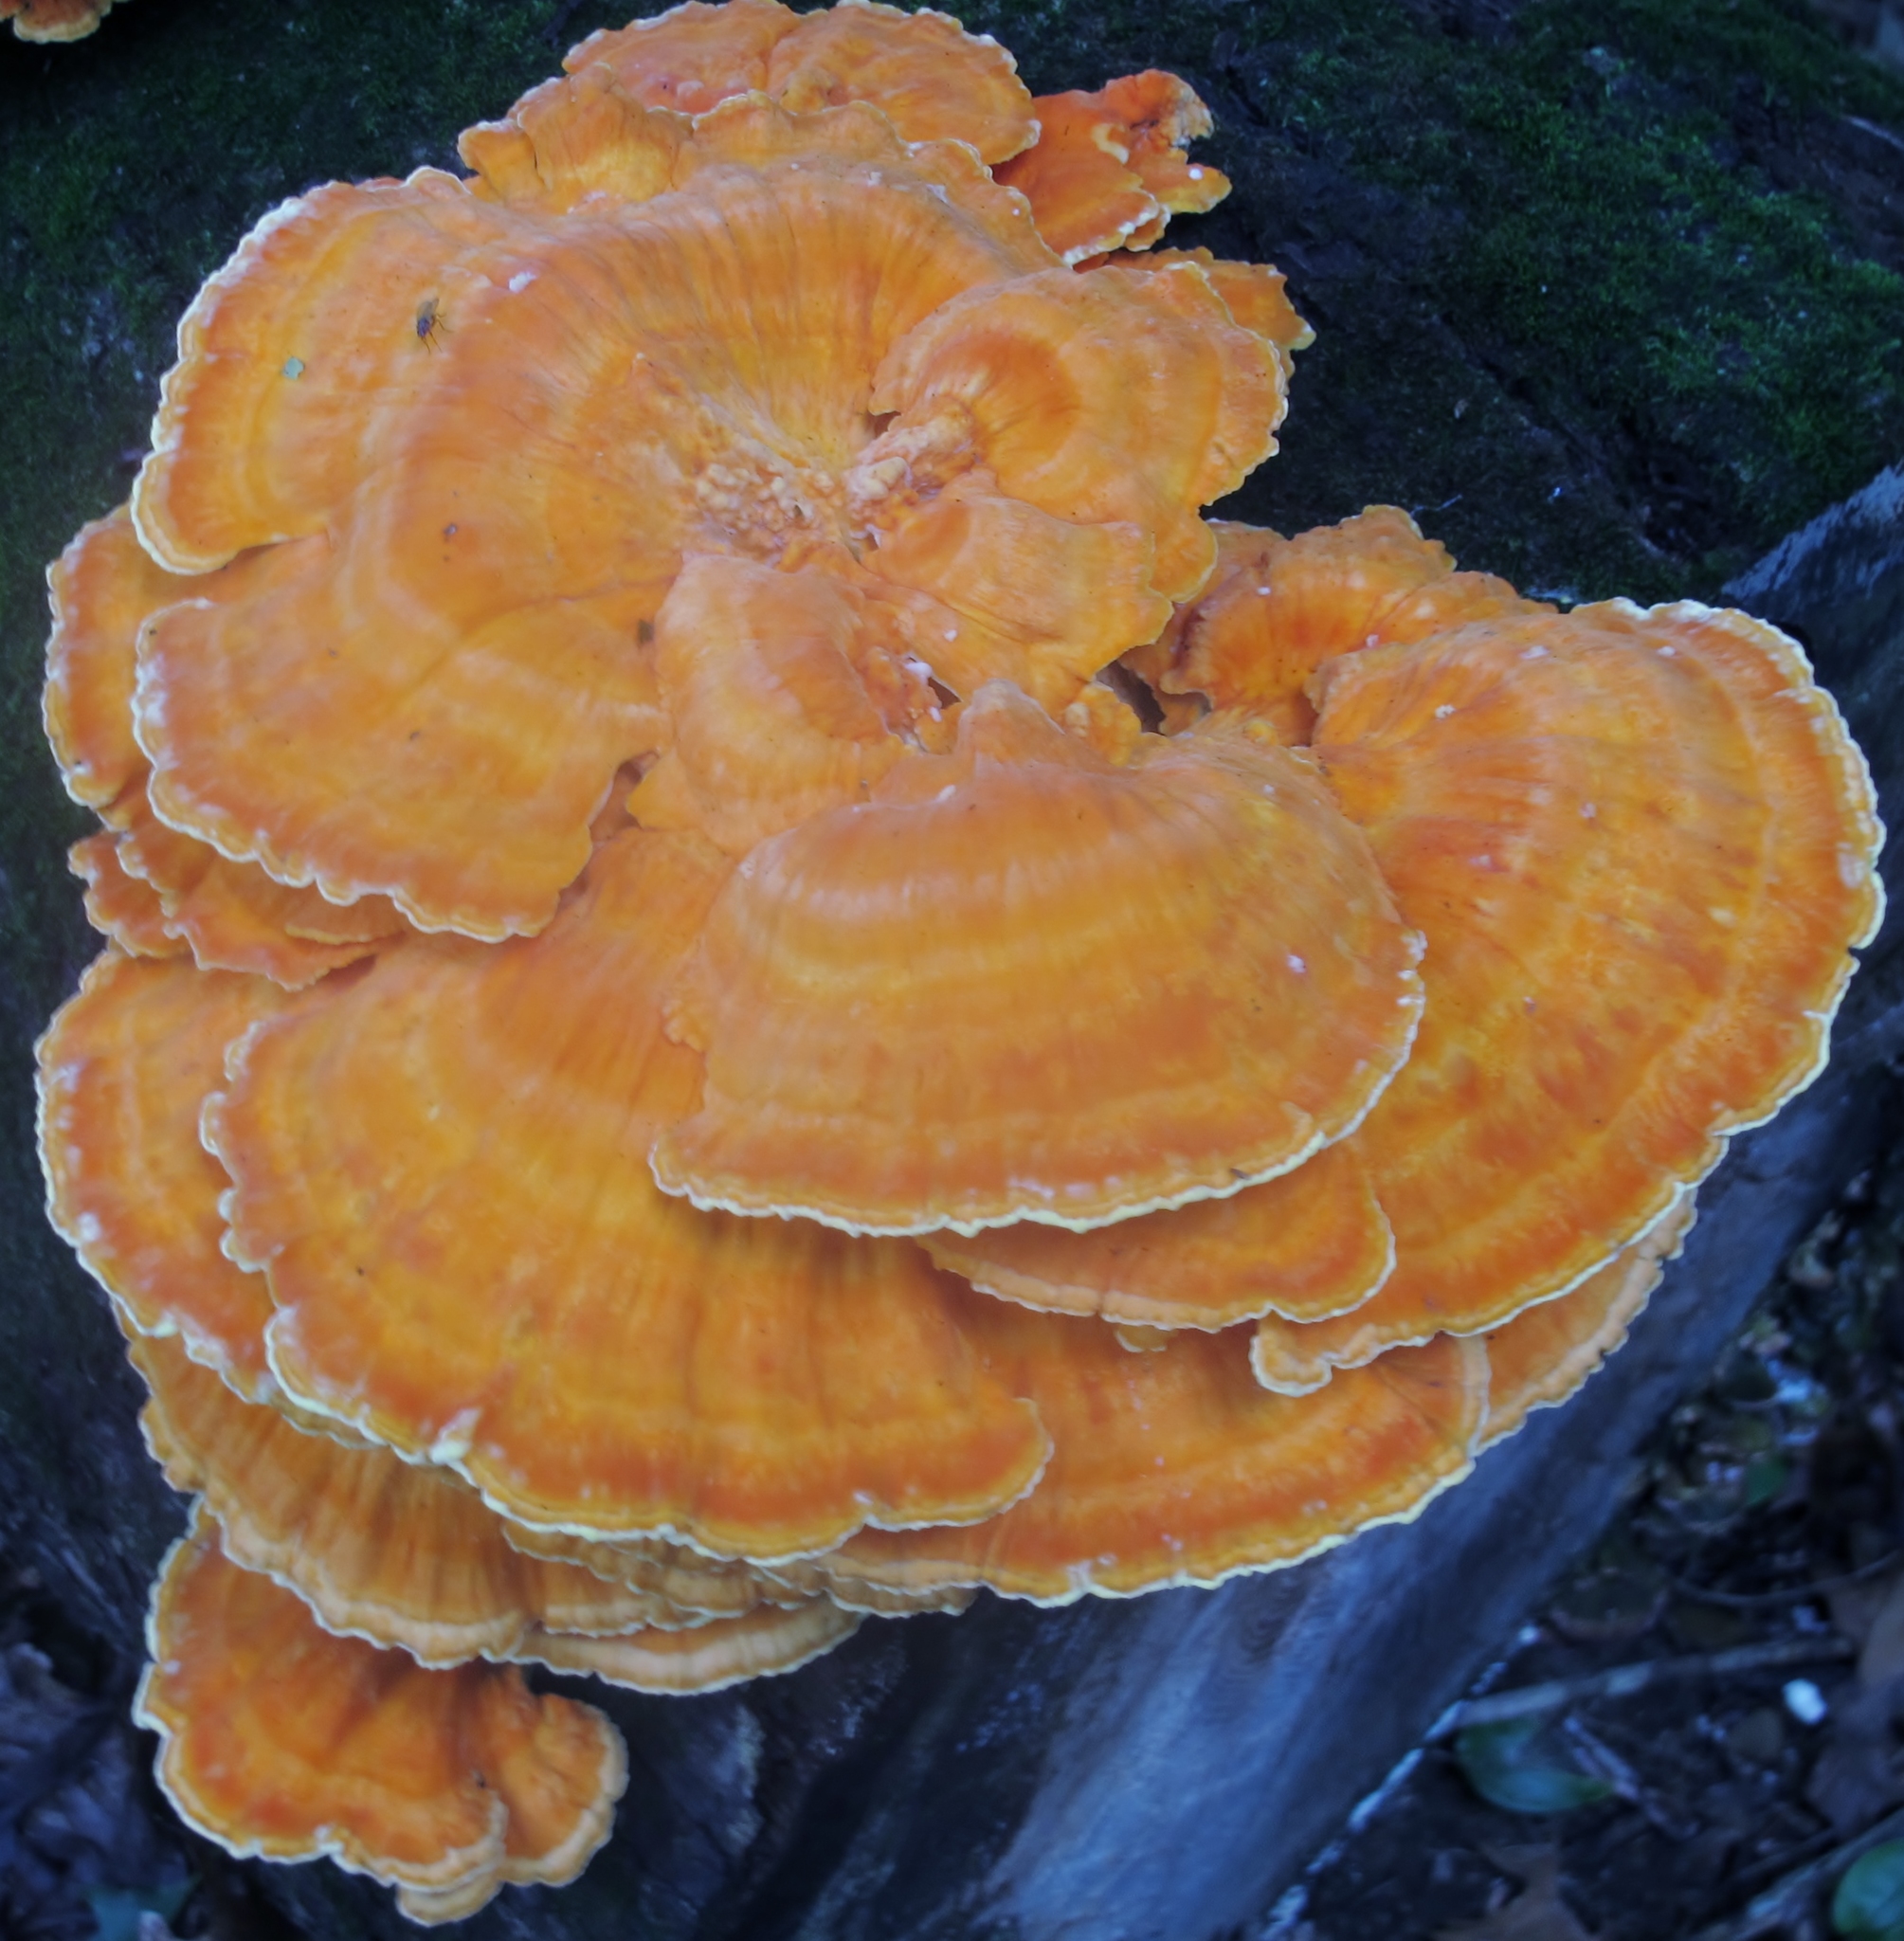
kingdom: Fungi
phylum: Basidiomycota
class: Agaricomycetes
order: Polyporales
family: Laetiporaceae
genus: Laetiporus
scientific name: Laetiporus sulphureus
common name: Chicken of the woods
